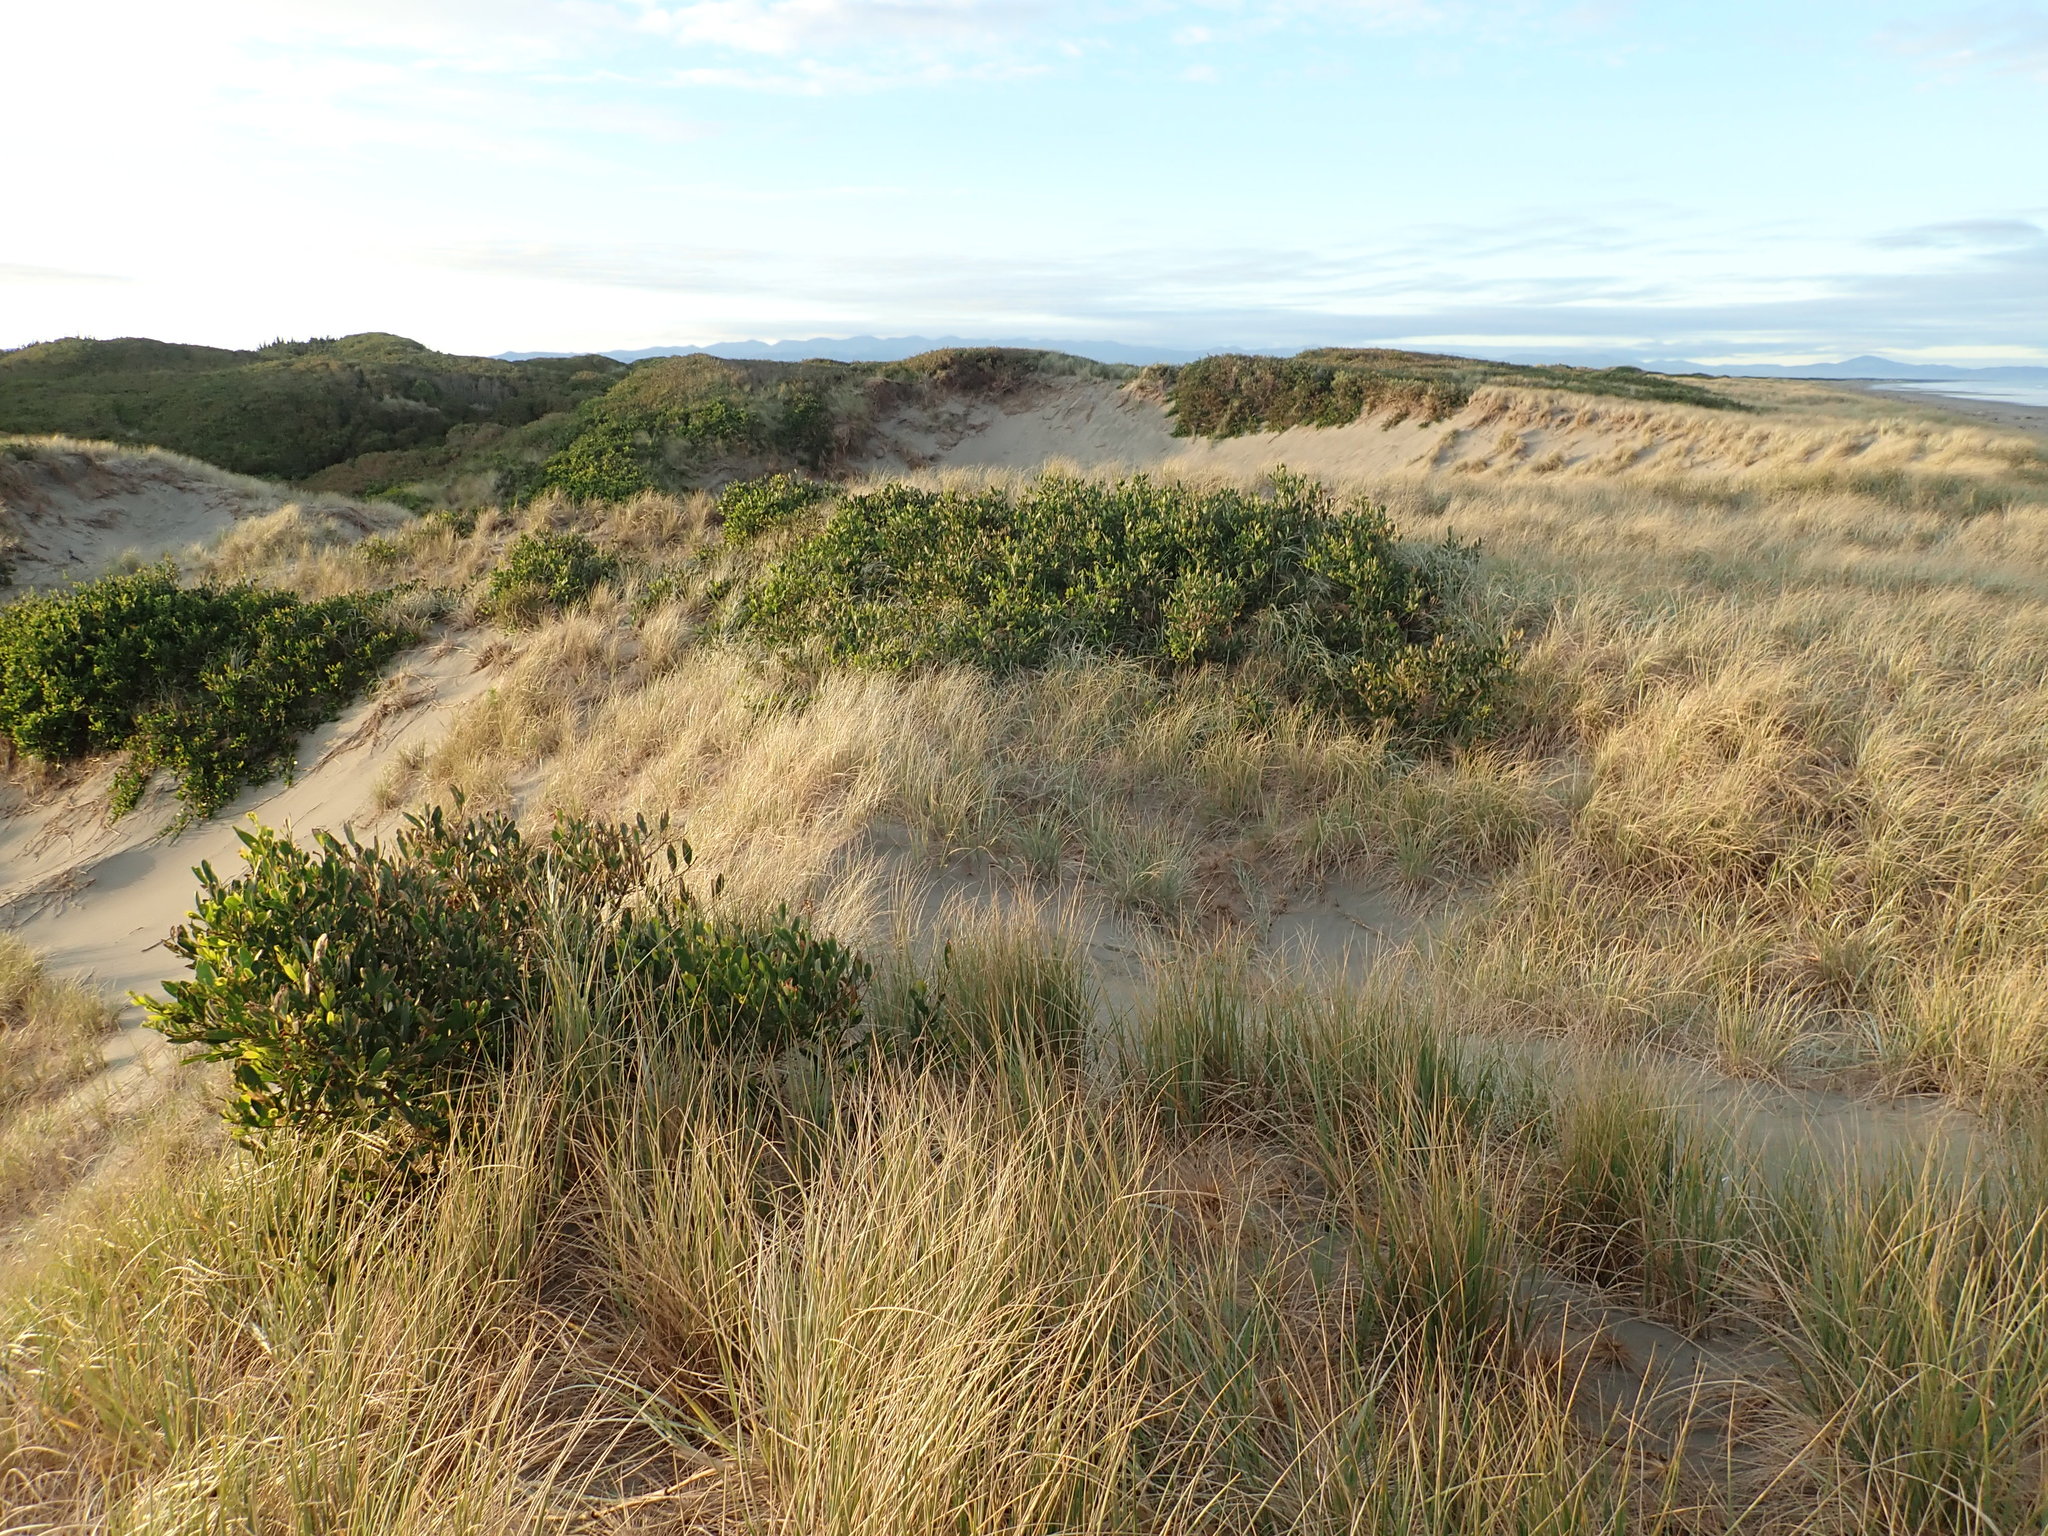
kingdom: Plantae
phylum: Tracheophyta
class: Magnoliopsida
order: Fabales
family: Fabaceae
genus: Acacia
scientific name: Acacia longifolia
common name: Sydney golden wattle
